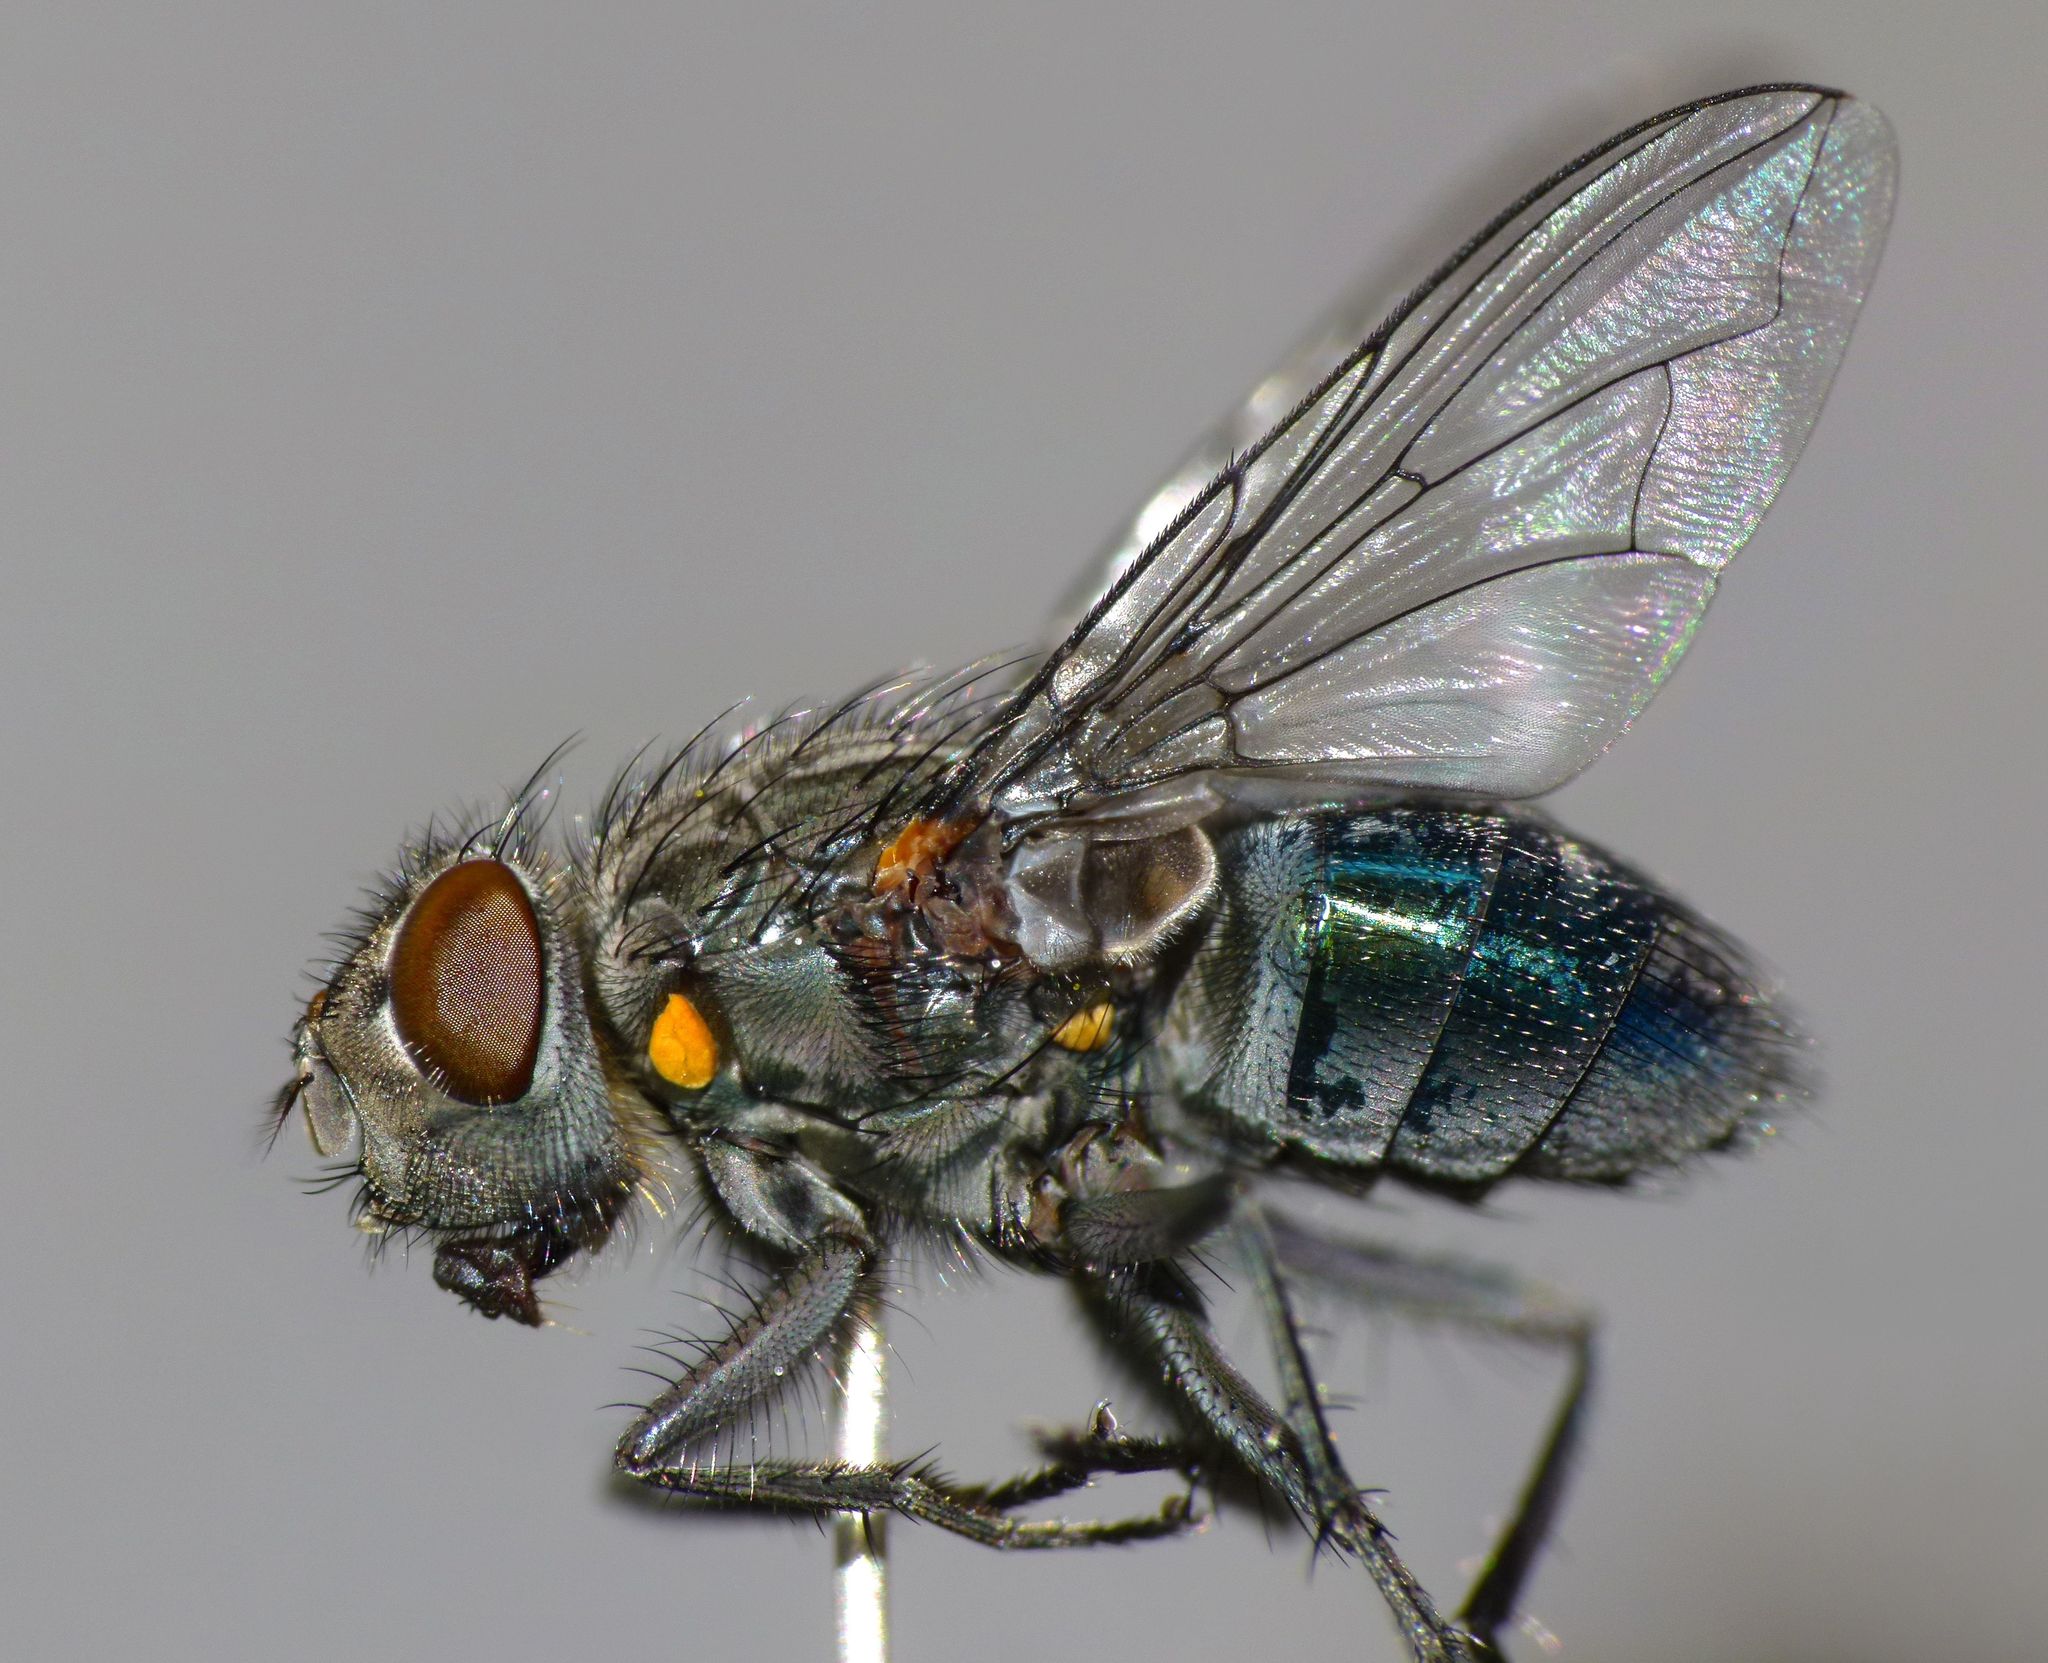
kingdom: Animalia
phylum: Arthropoda
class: Insecta
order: Diptera
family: Calliphoridae
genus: Ptilonesia
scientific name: Ptilonesia auronotata
